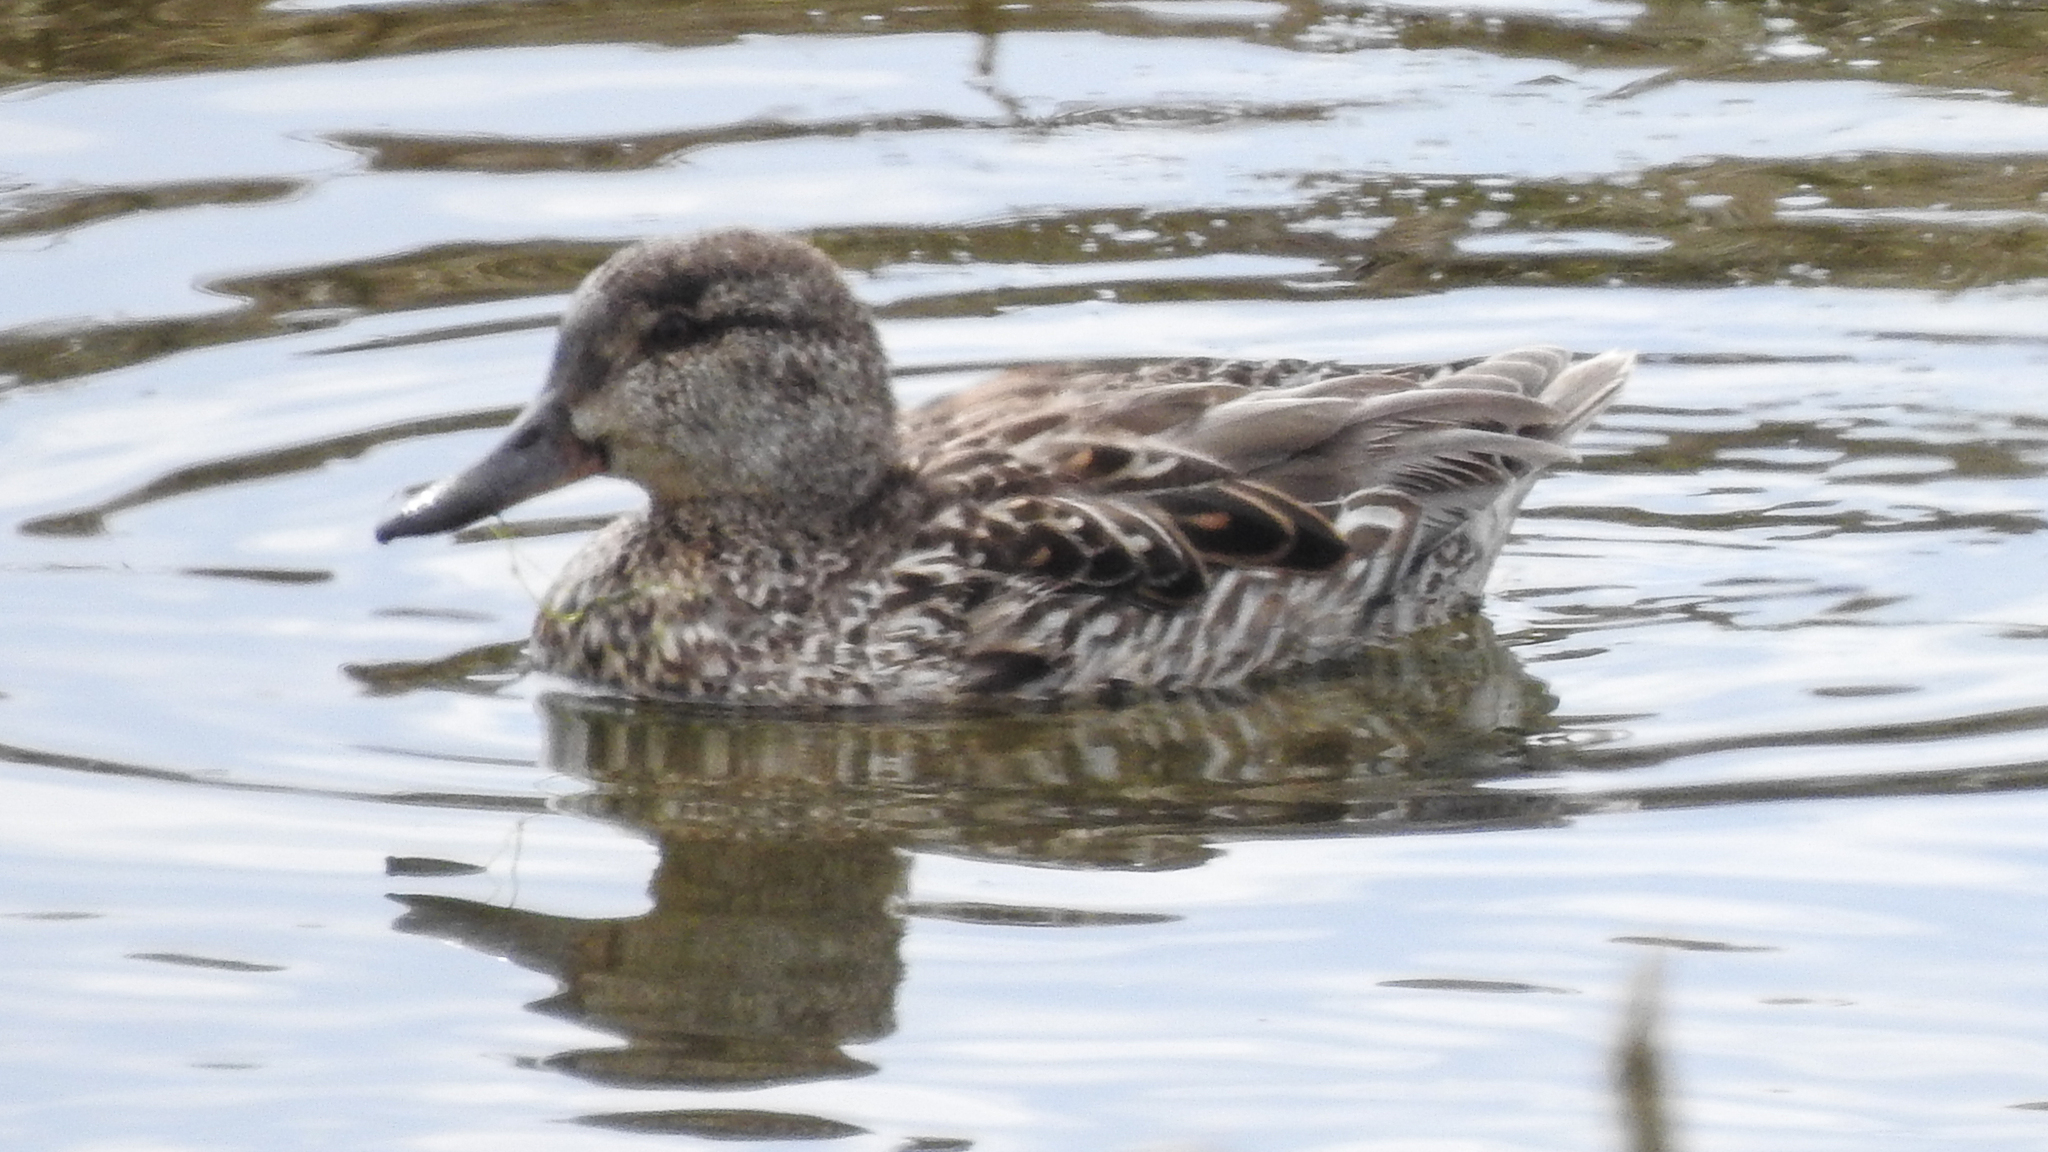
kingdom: Animalia
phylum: Chordata
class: Aves
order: Anseriformes
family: Anatidae
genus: Anas
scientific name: Anas crecca
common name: Eurasian teal
